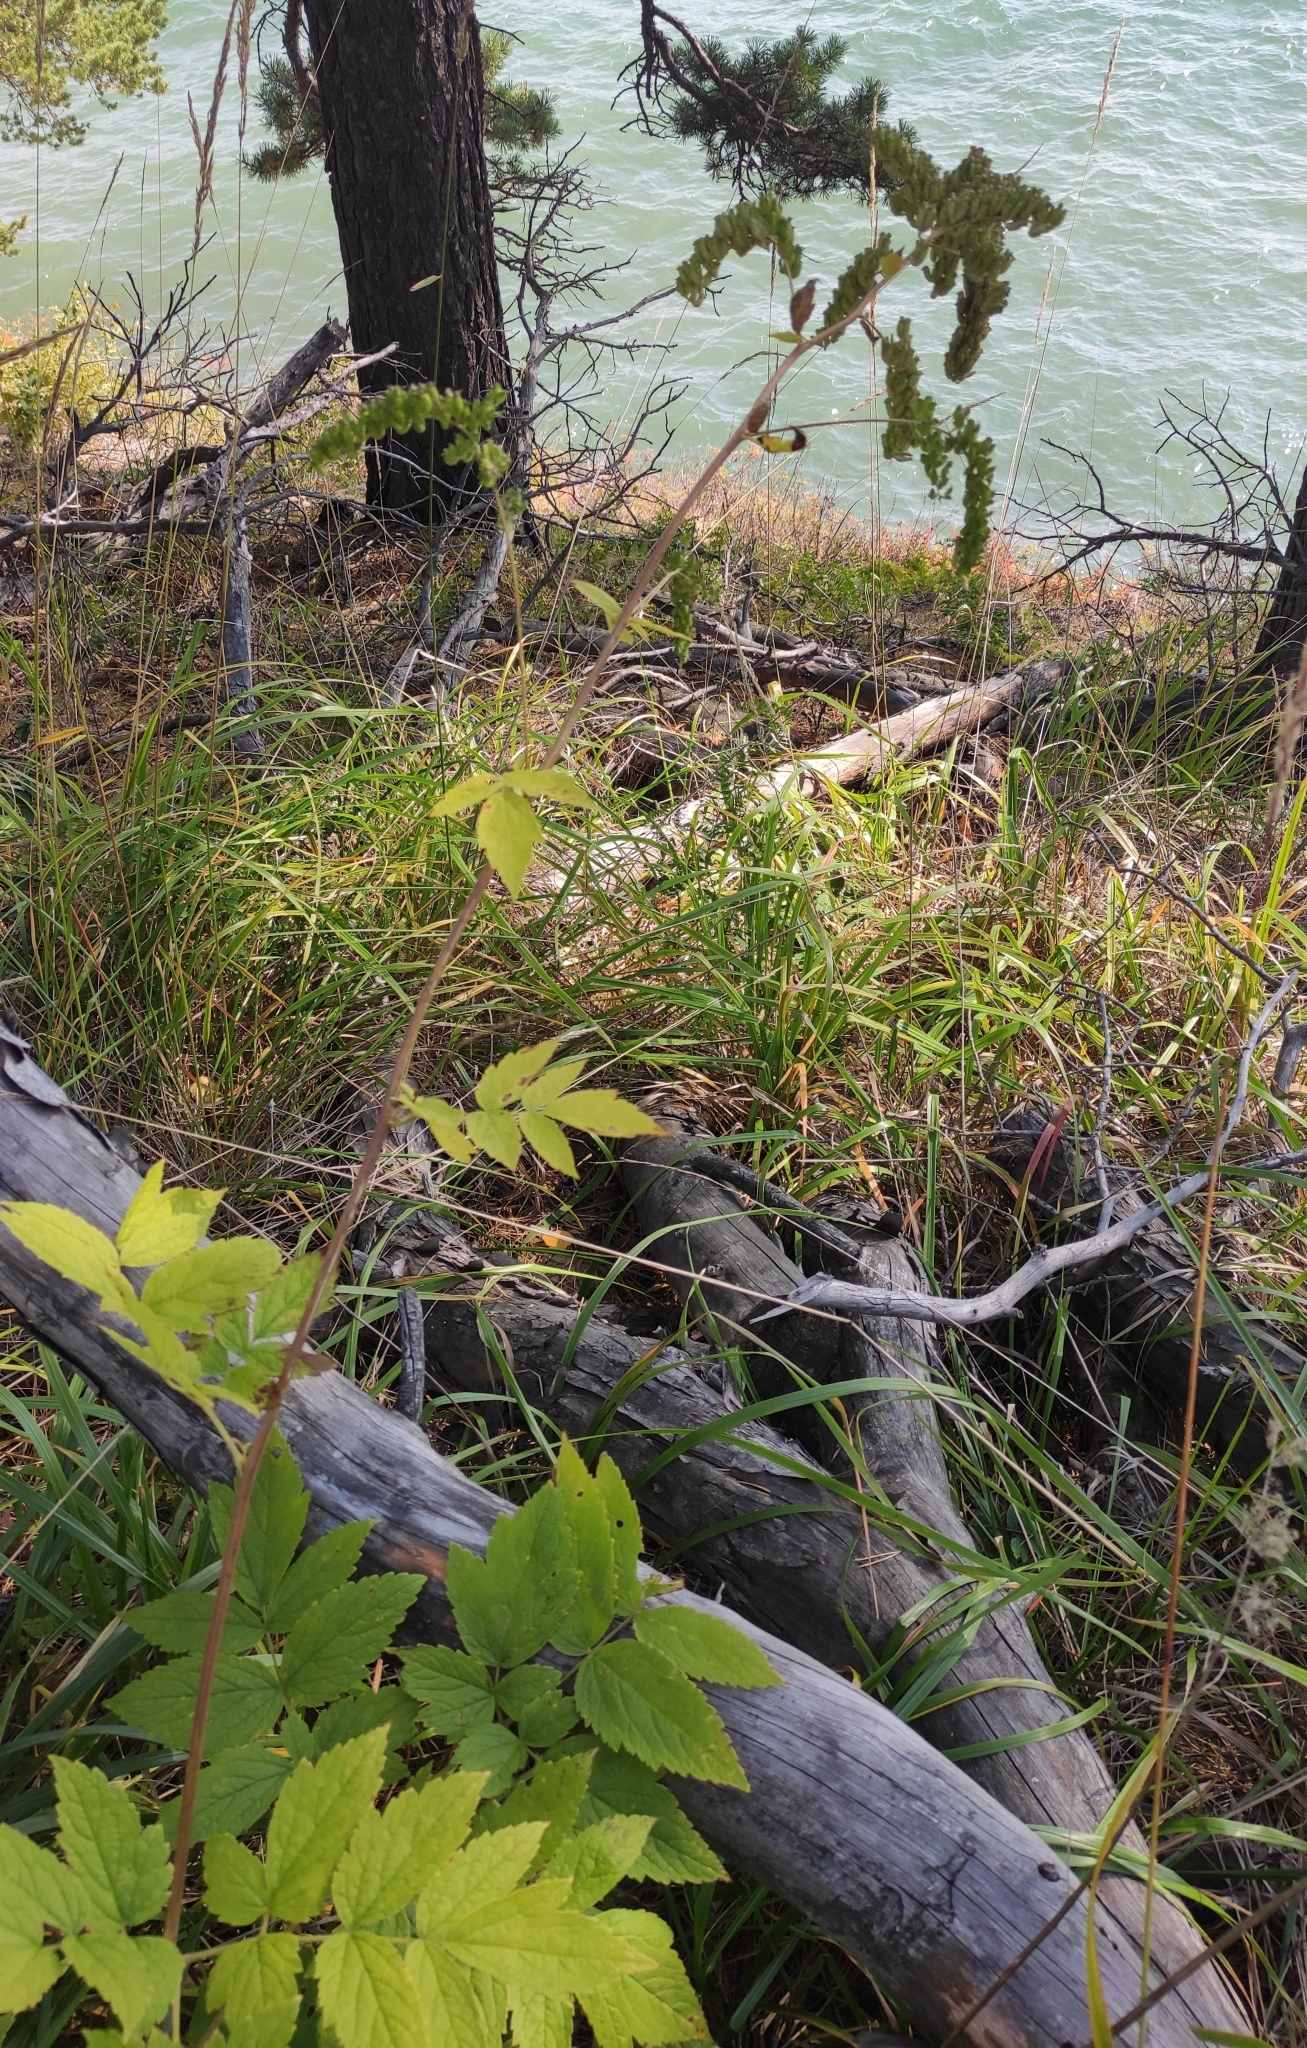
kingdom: Plantae
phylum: Tracheophyta
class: Magnoliopsida
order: Ranunculales
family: Ranunculaceae
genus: Actaea
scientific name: Actaea cimicifuga
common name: Chinese cimicifuga
